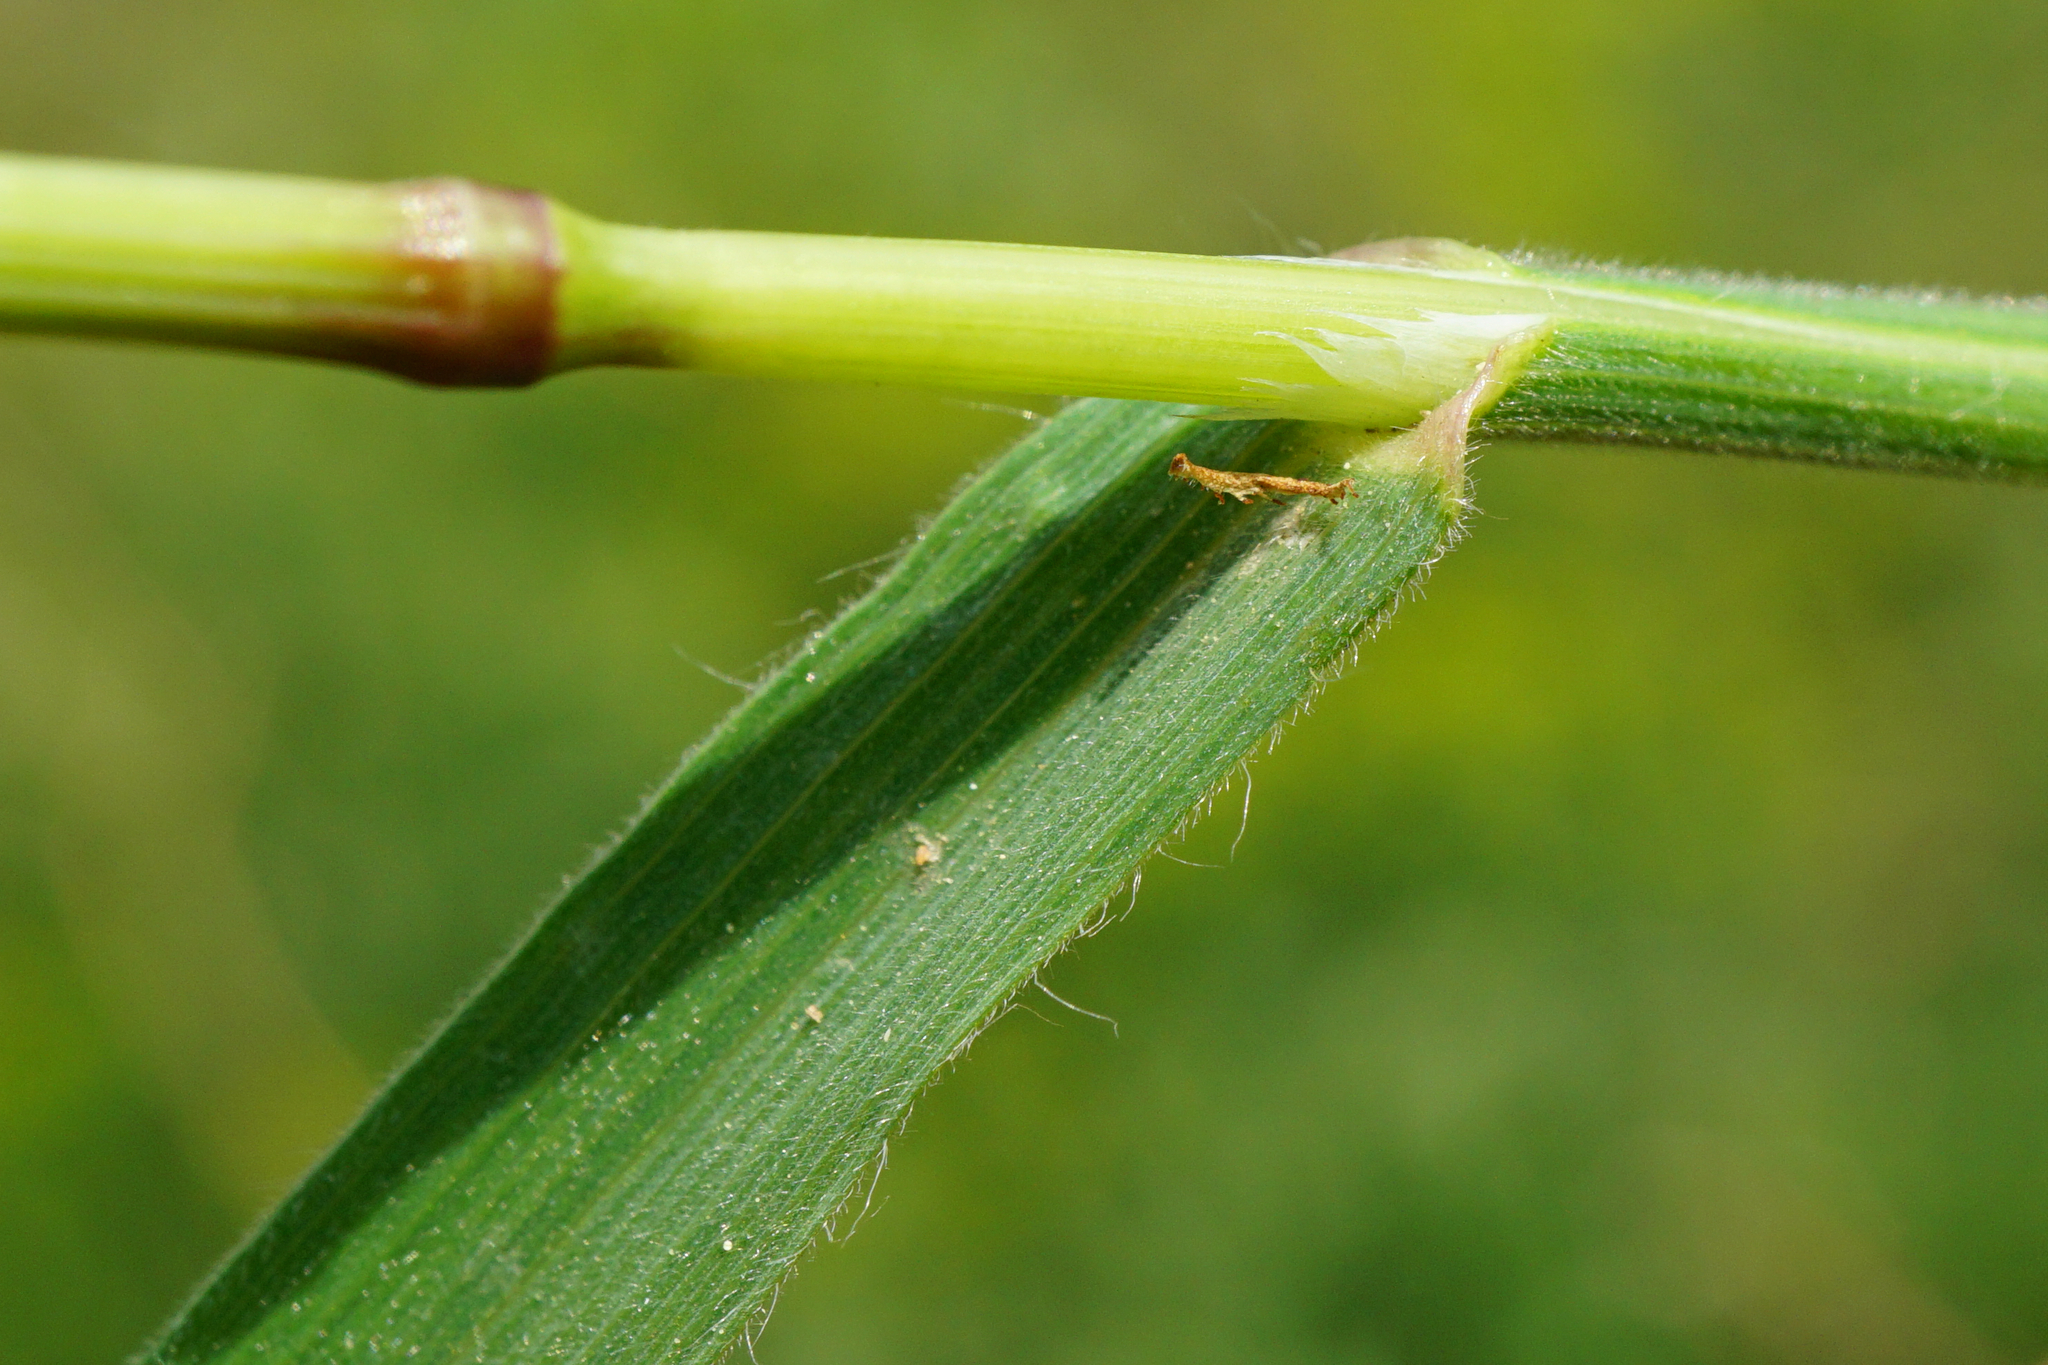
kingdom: Plantae
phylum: Tracheophyta
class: Liliopsida
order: Poales
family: Poaceae
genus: Bromus
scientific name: Bromus tectorum
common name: Cheatgrass
